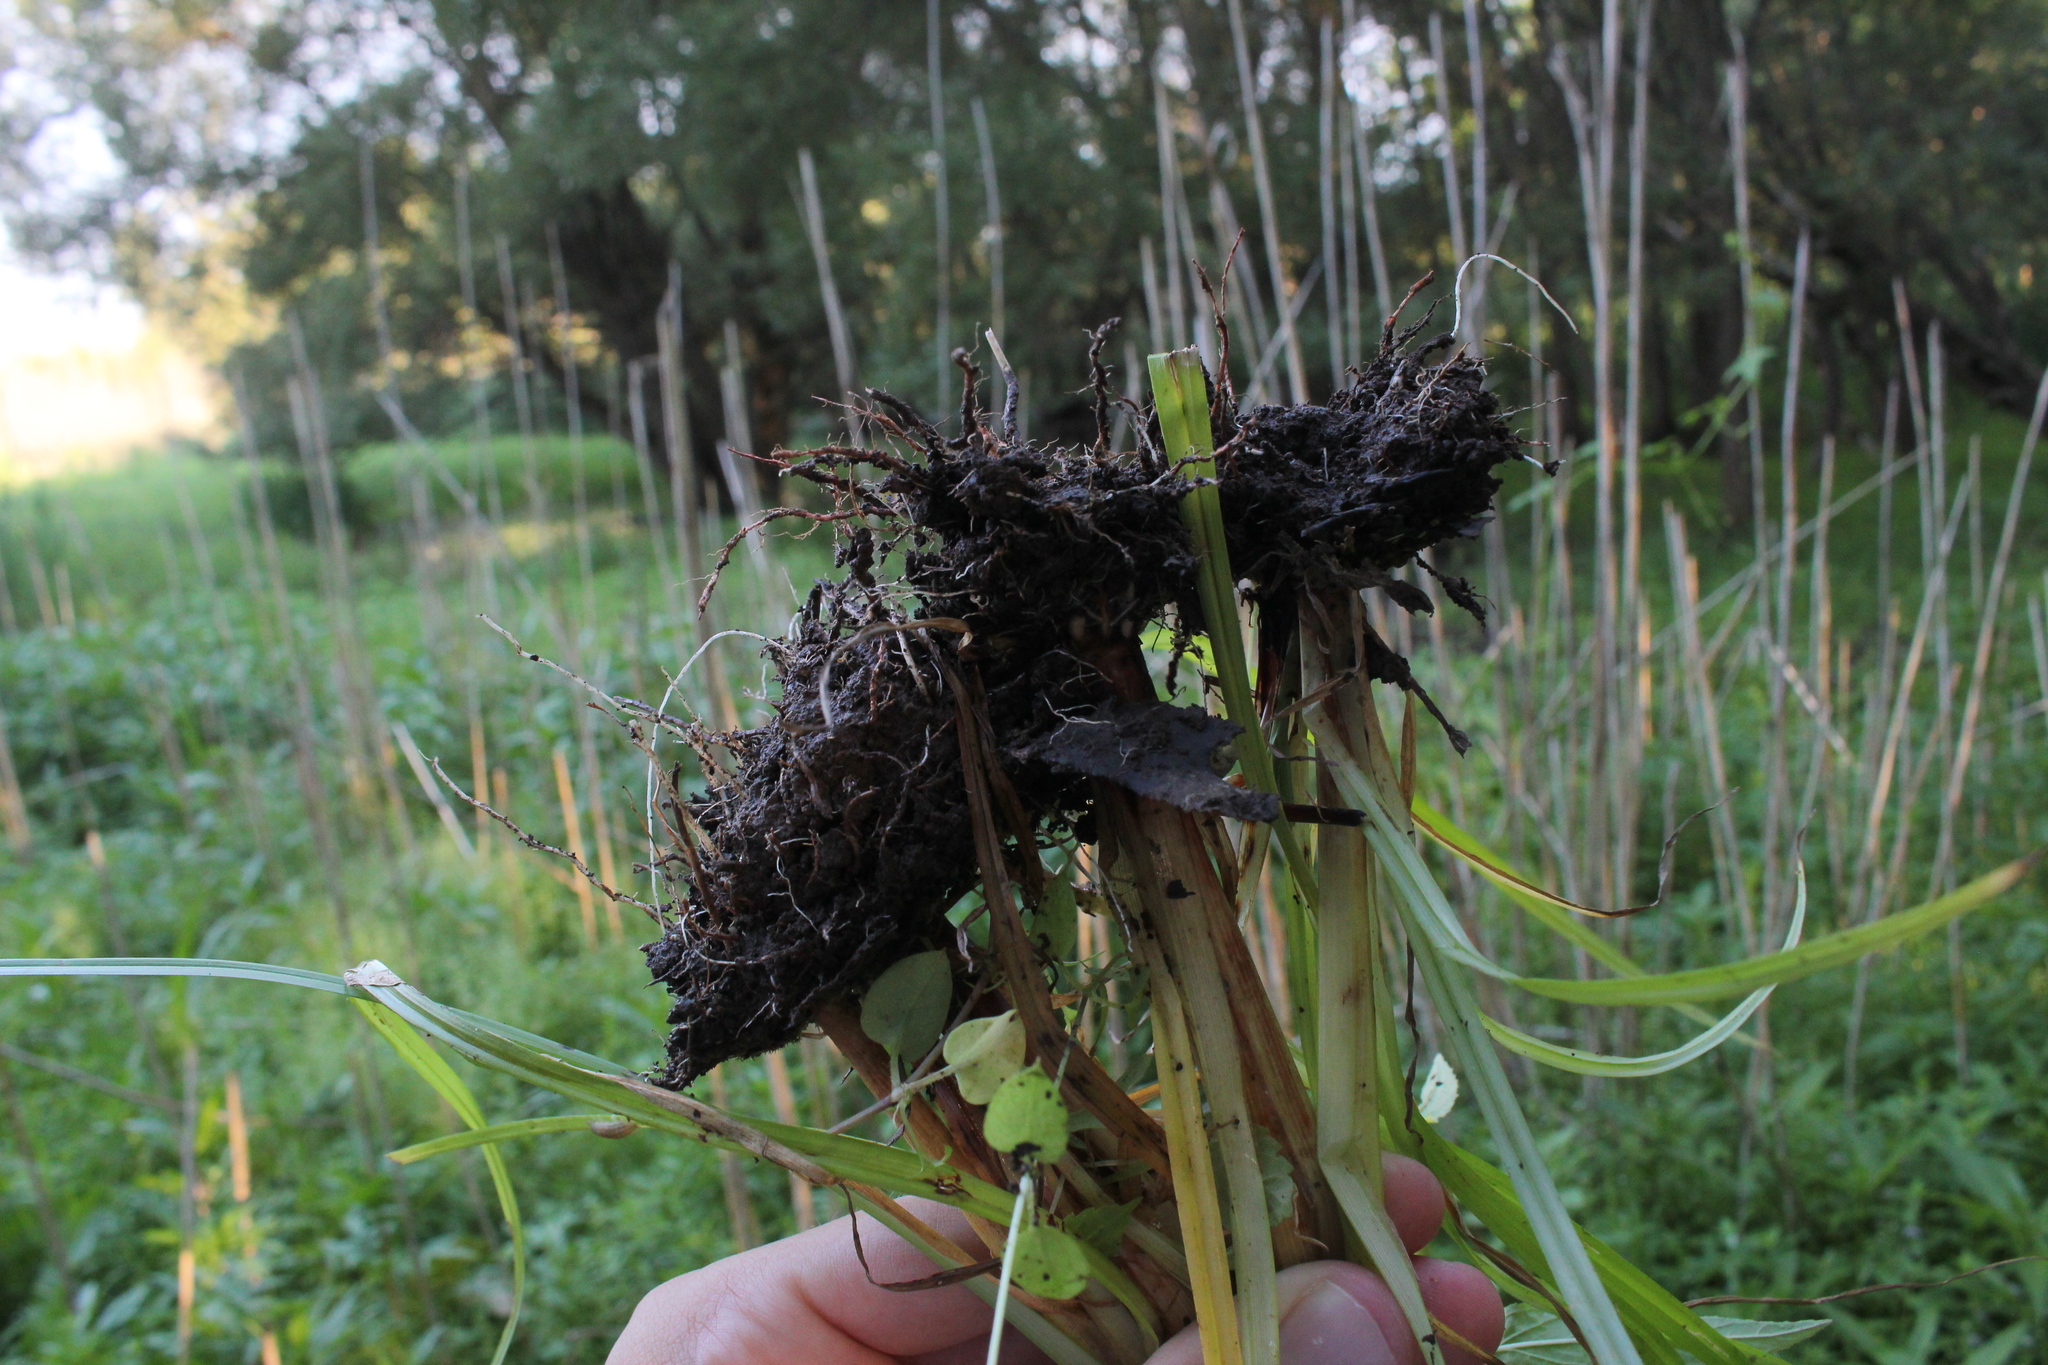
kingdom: Plantae
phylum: Tracheophyta
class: Liliopsida
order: Poales
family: Cyperaceae
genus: Cyperus
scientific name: Cyperus erythrorhizos
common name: Red-root flat sedge
